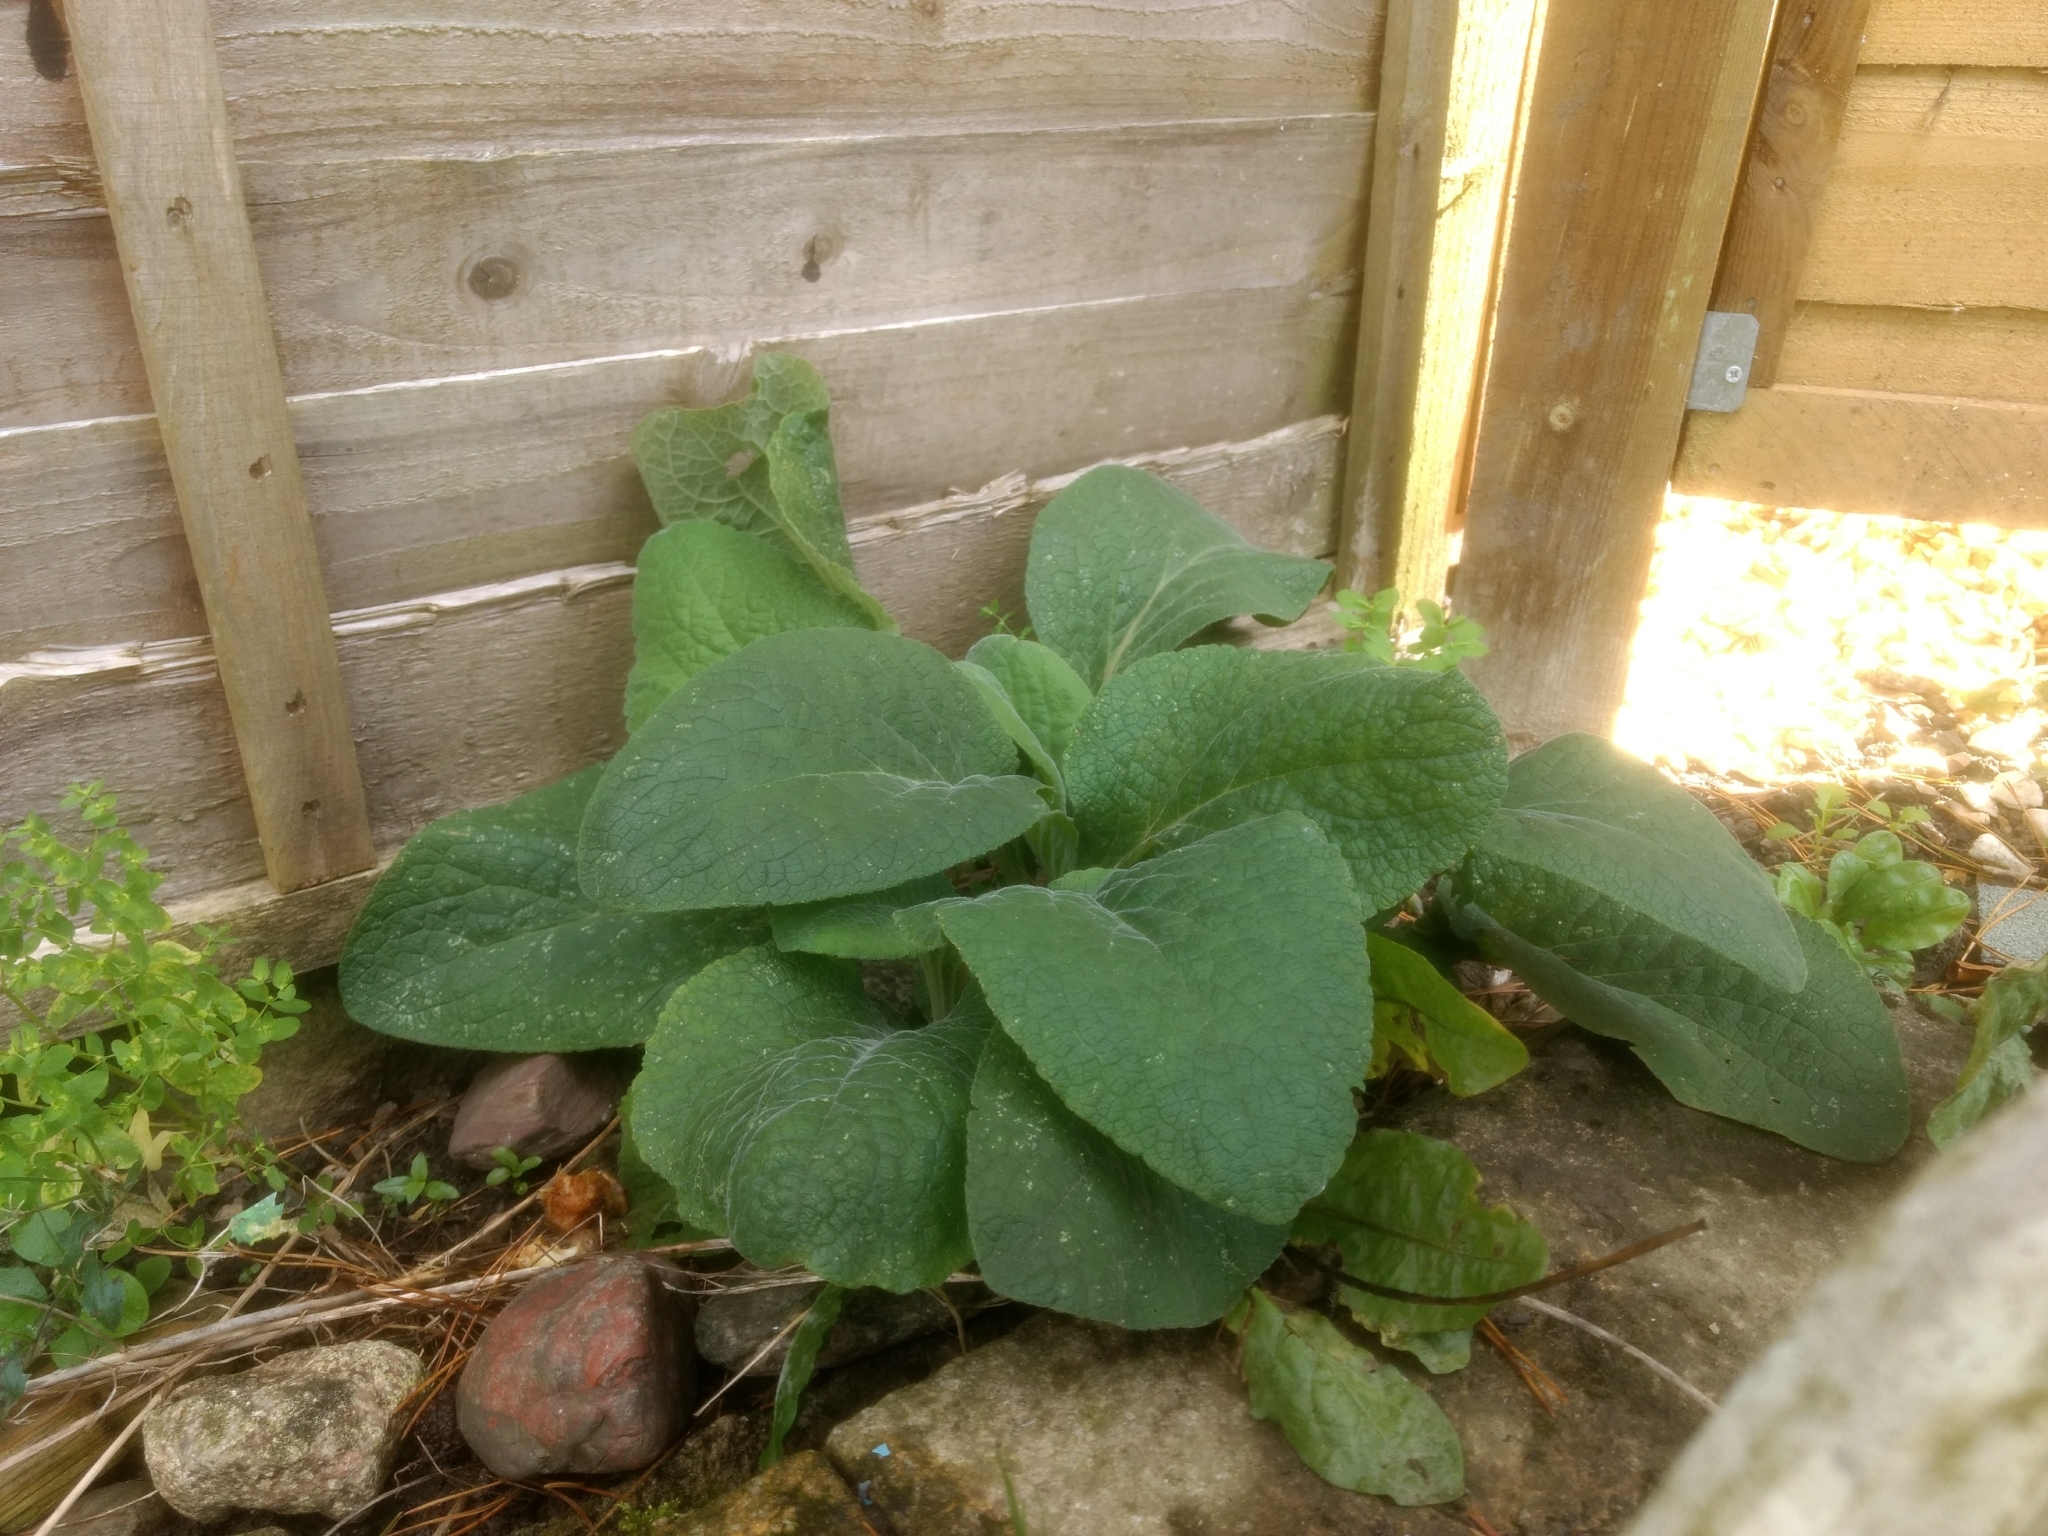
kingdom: Plantae
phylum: Tracheophyta
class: Magnoliopsida
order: Lamiales
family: Plantaginaceae
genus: Digitalis
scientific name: Digitalis purpurea
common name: Foxglove
